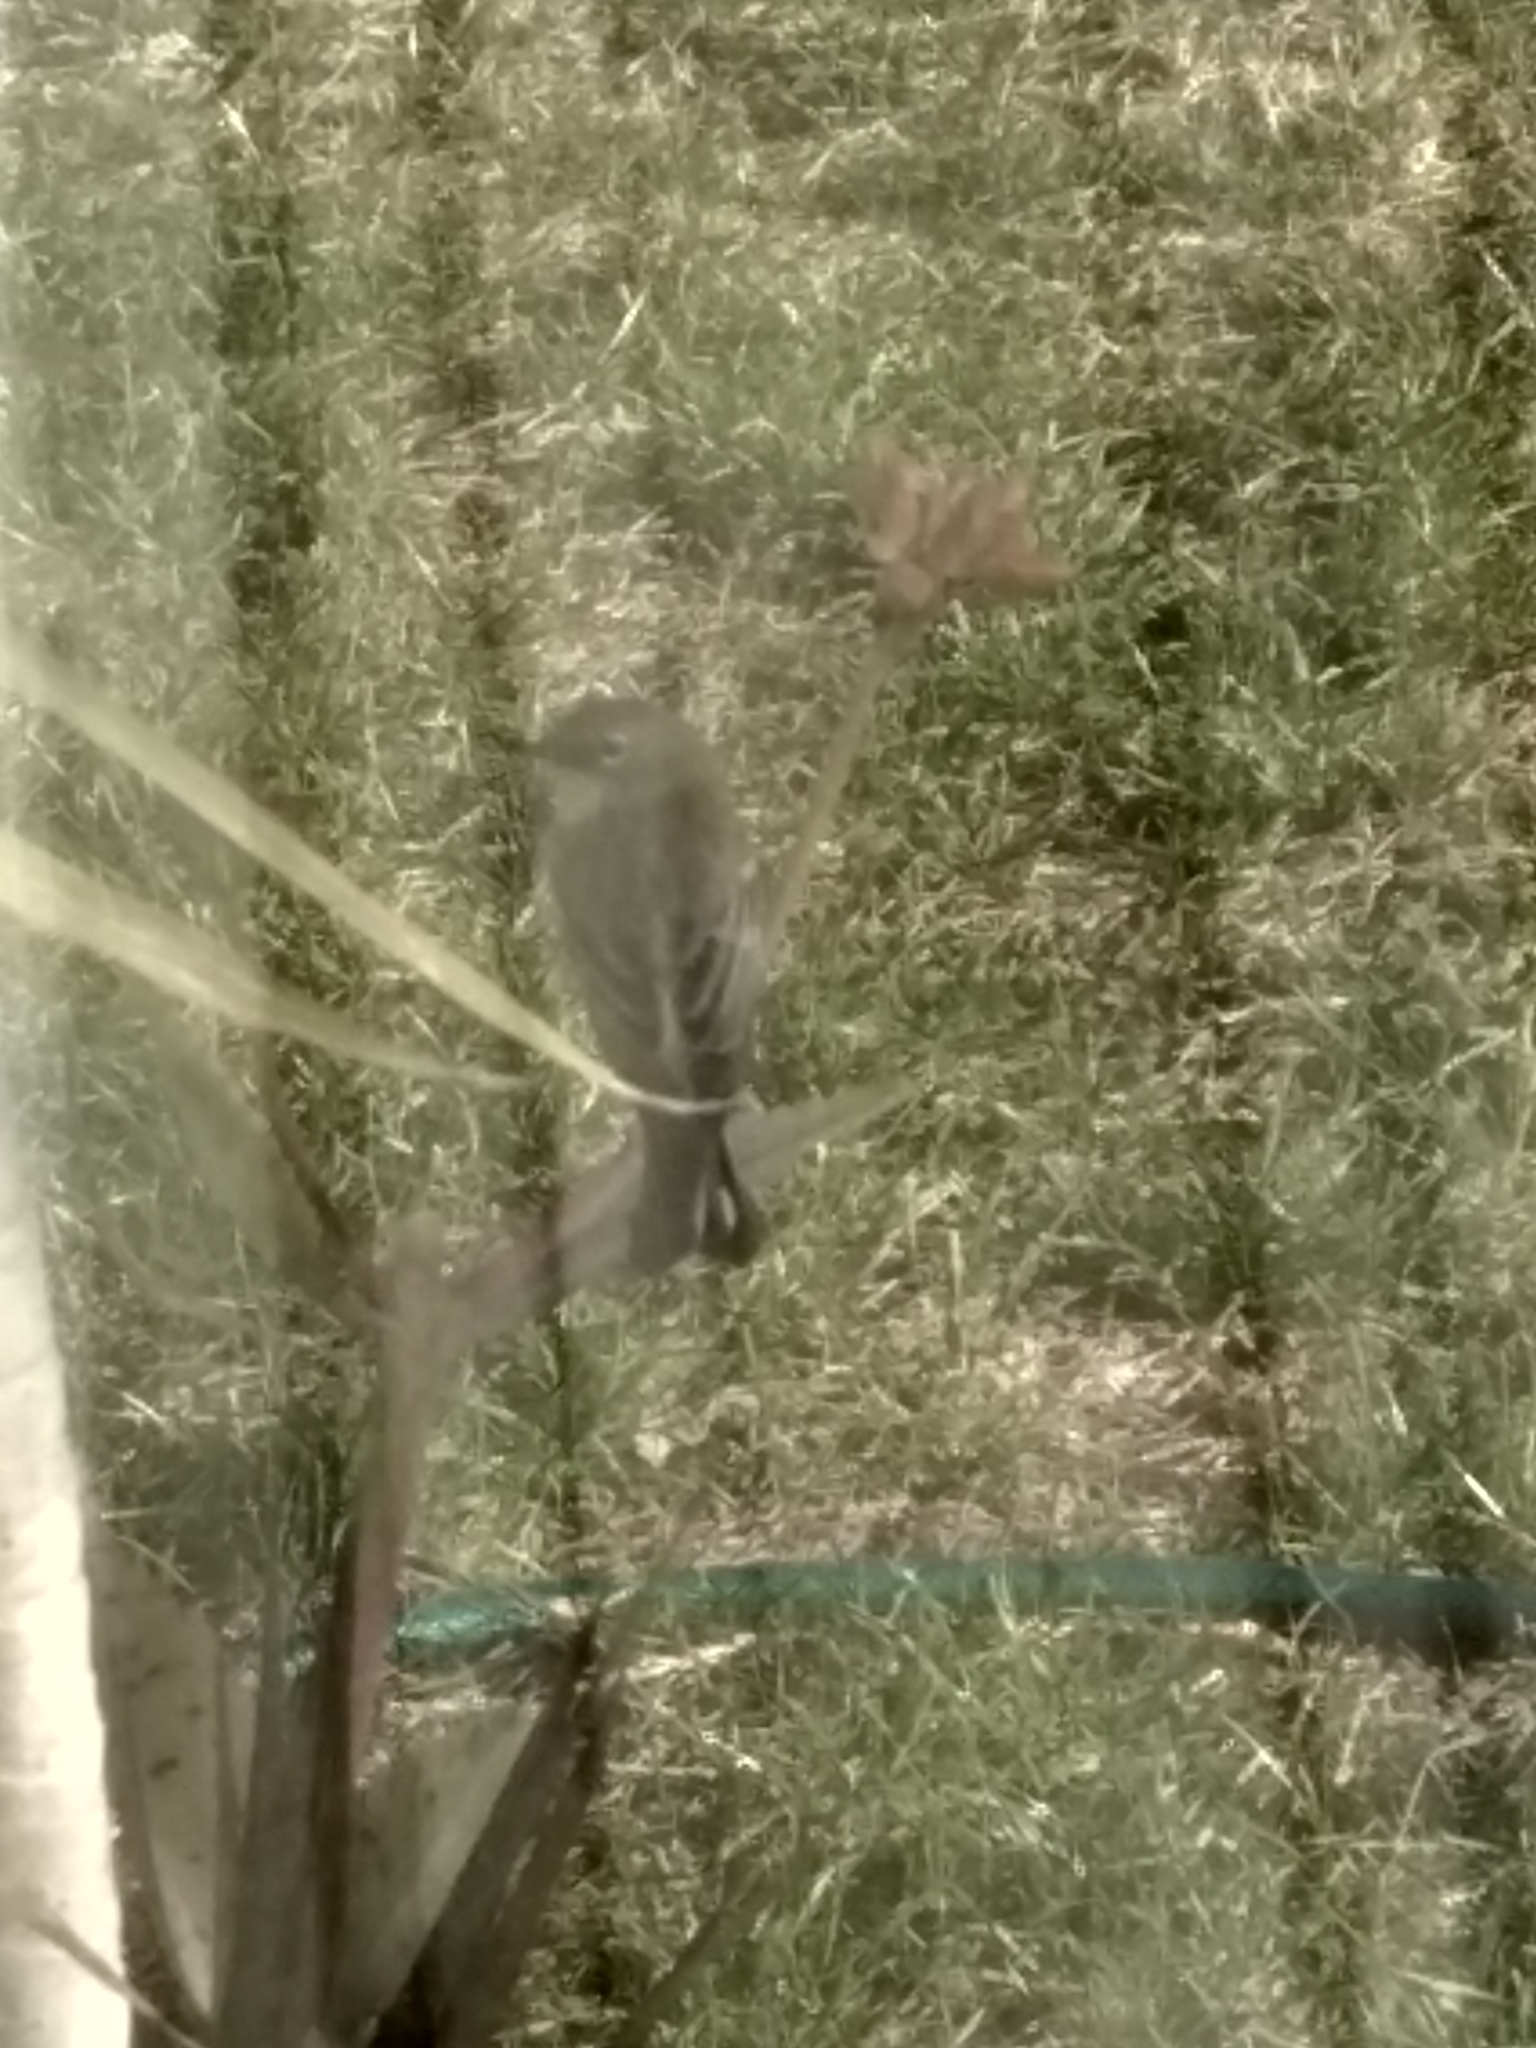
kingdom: Animalia
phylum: Chordata
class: Aves
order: Passeriformes
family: Parulidae
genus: Setophaga
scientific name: Setophaga coronata
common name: Myrtle warbler
